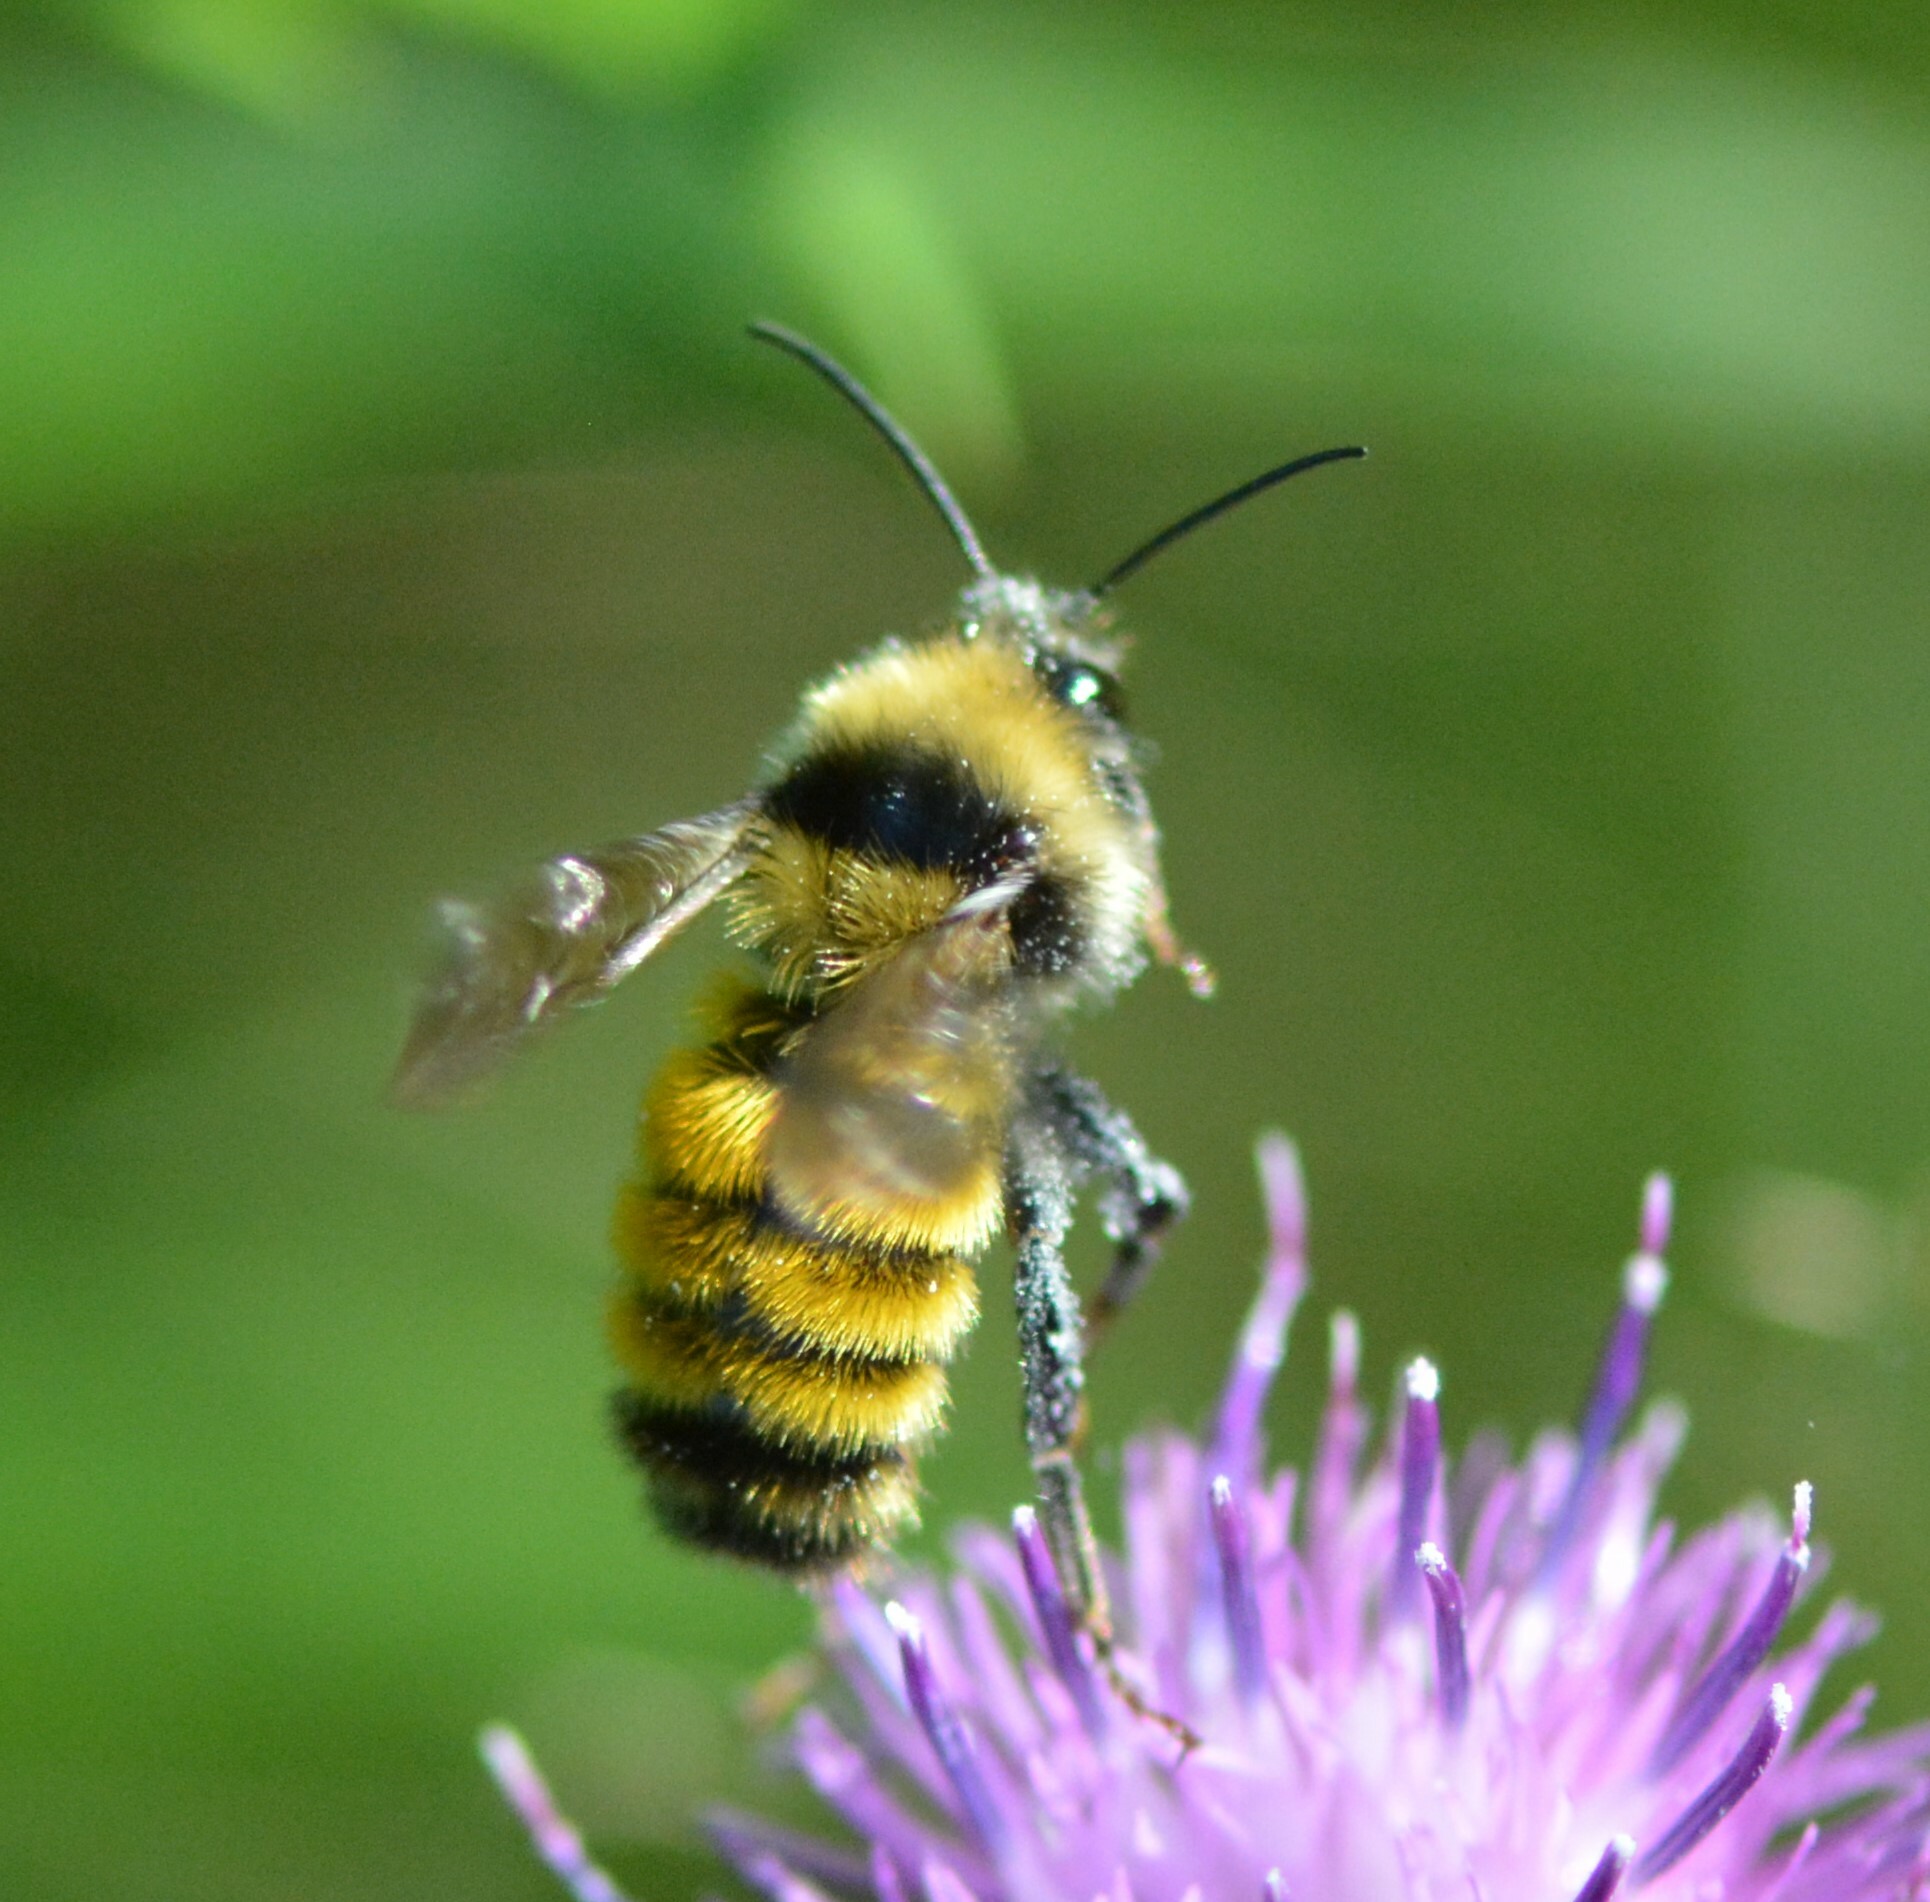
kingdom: Animalia
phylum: Arthropoda
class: Insecta
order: Hymenoptera
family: Apidae
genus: Bombus
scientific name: Bombus borealis
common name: Northern amber bumble bee
